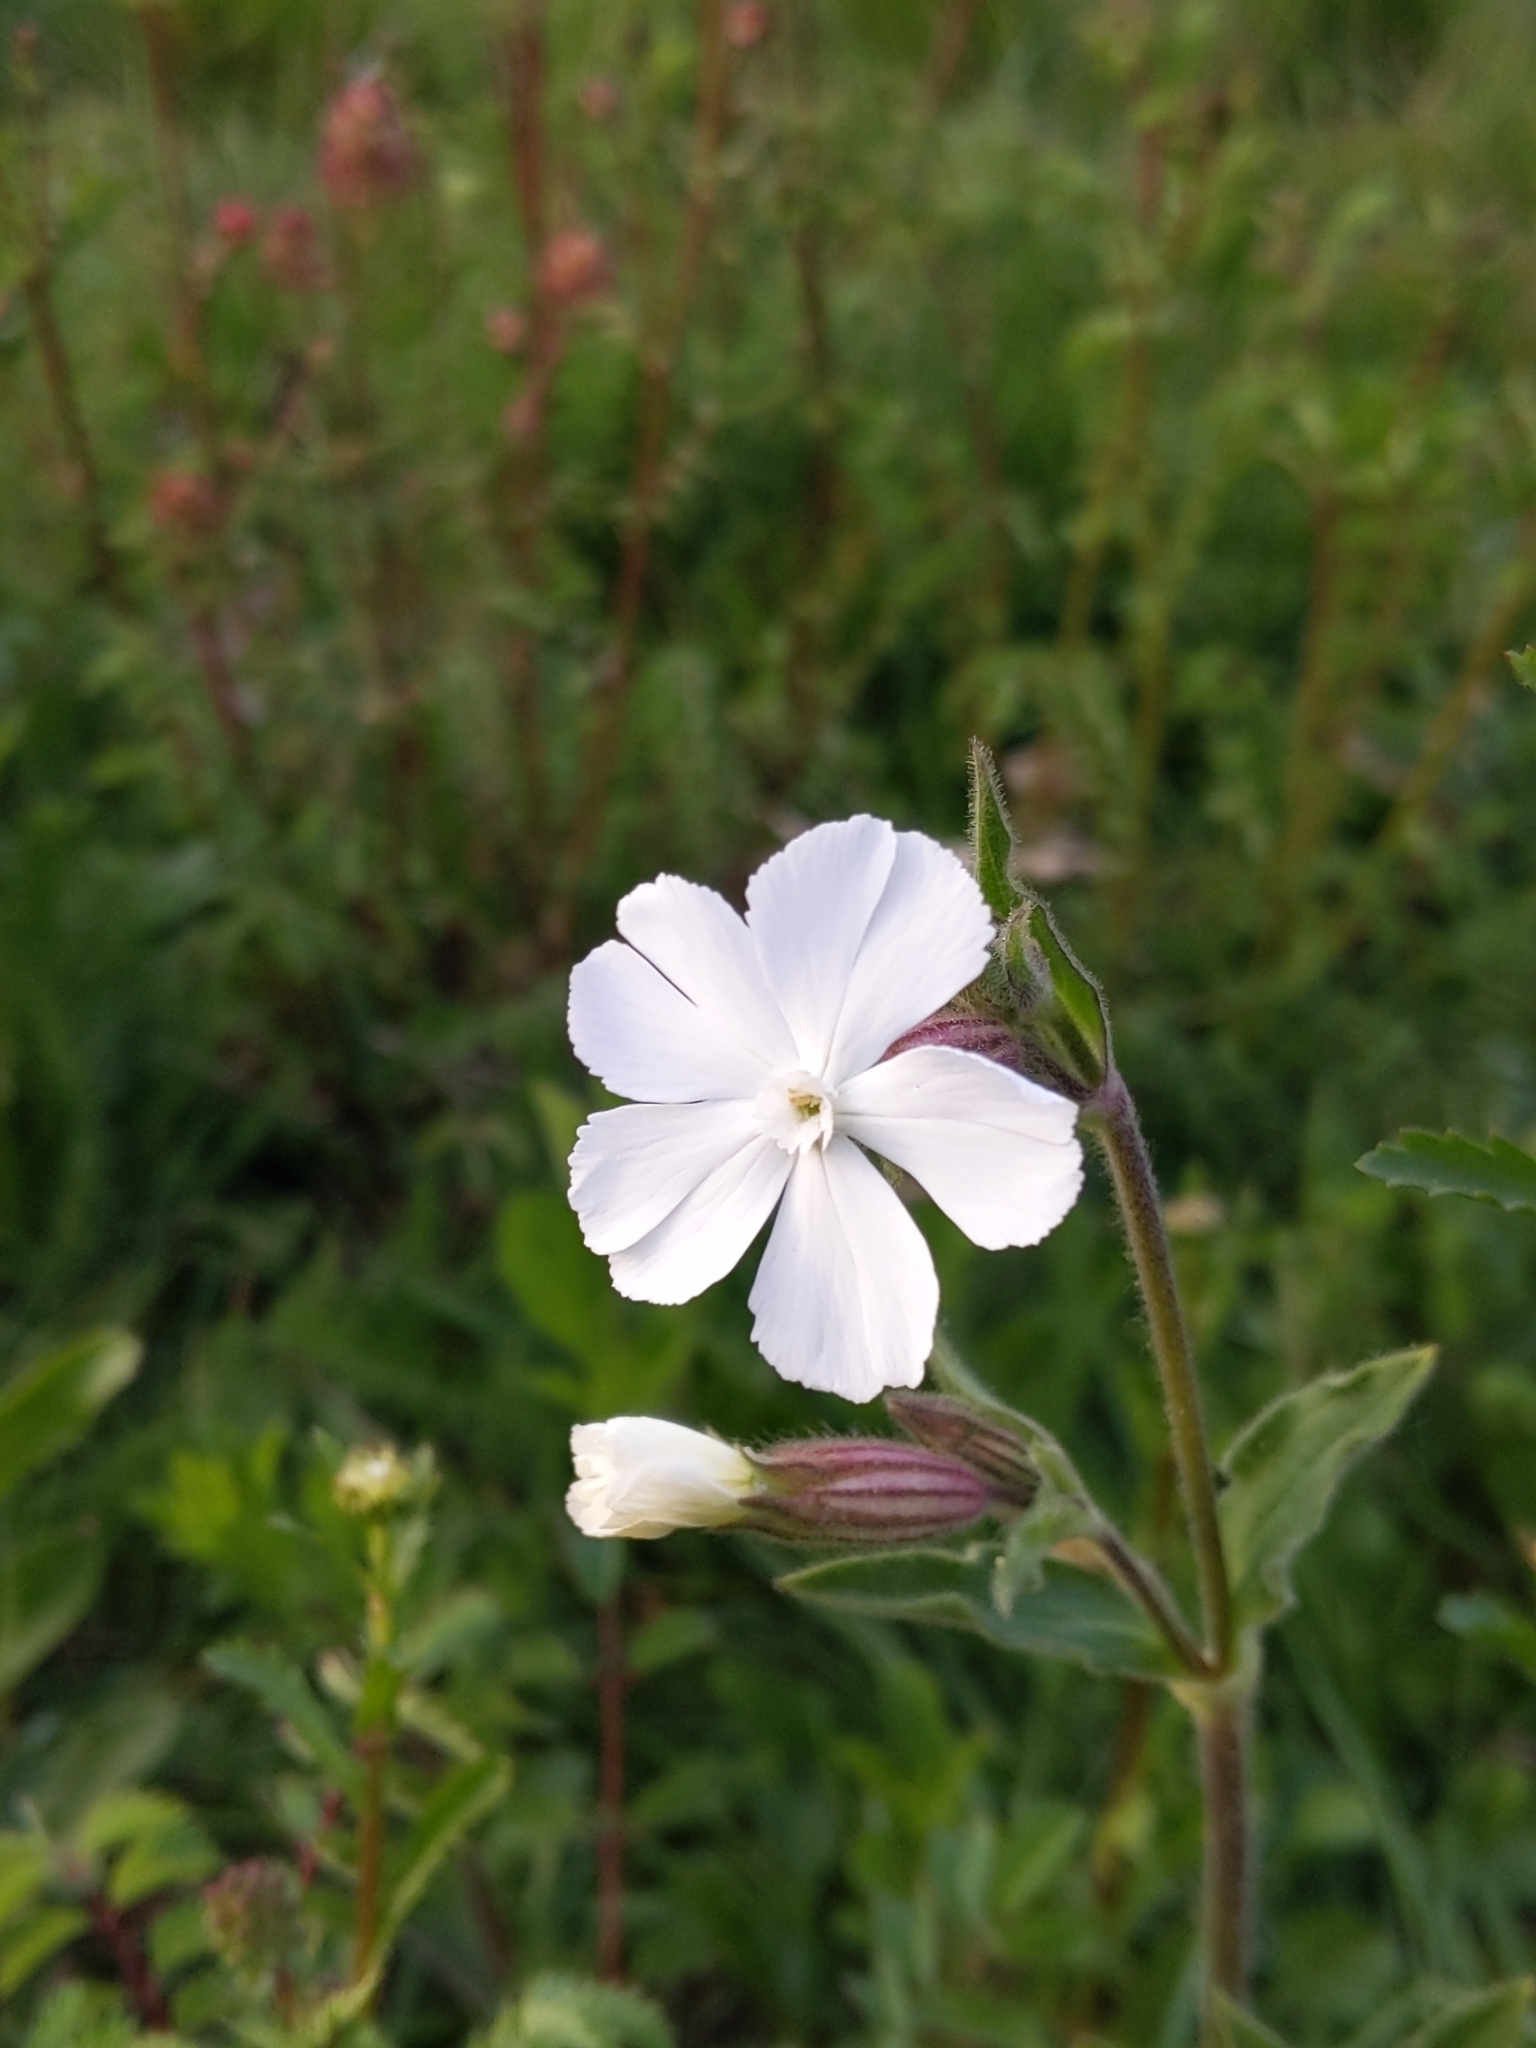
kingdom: Plantae
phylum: Tracheophyta
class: Magnoliopsida
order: Caryophyllales
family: Caryophyllaceae
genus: Silene
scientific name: Silene latifolia
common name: White campion
